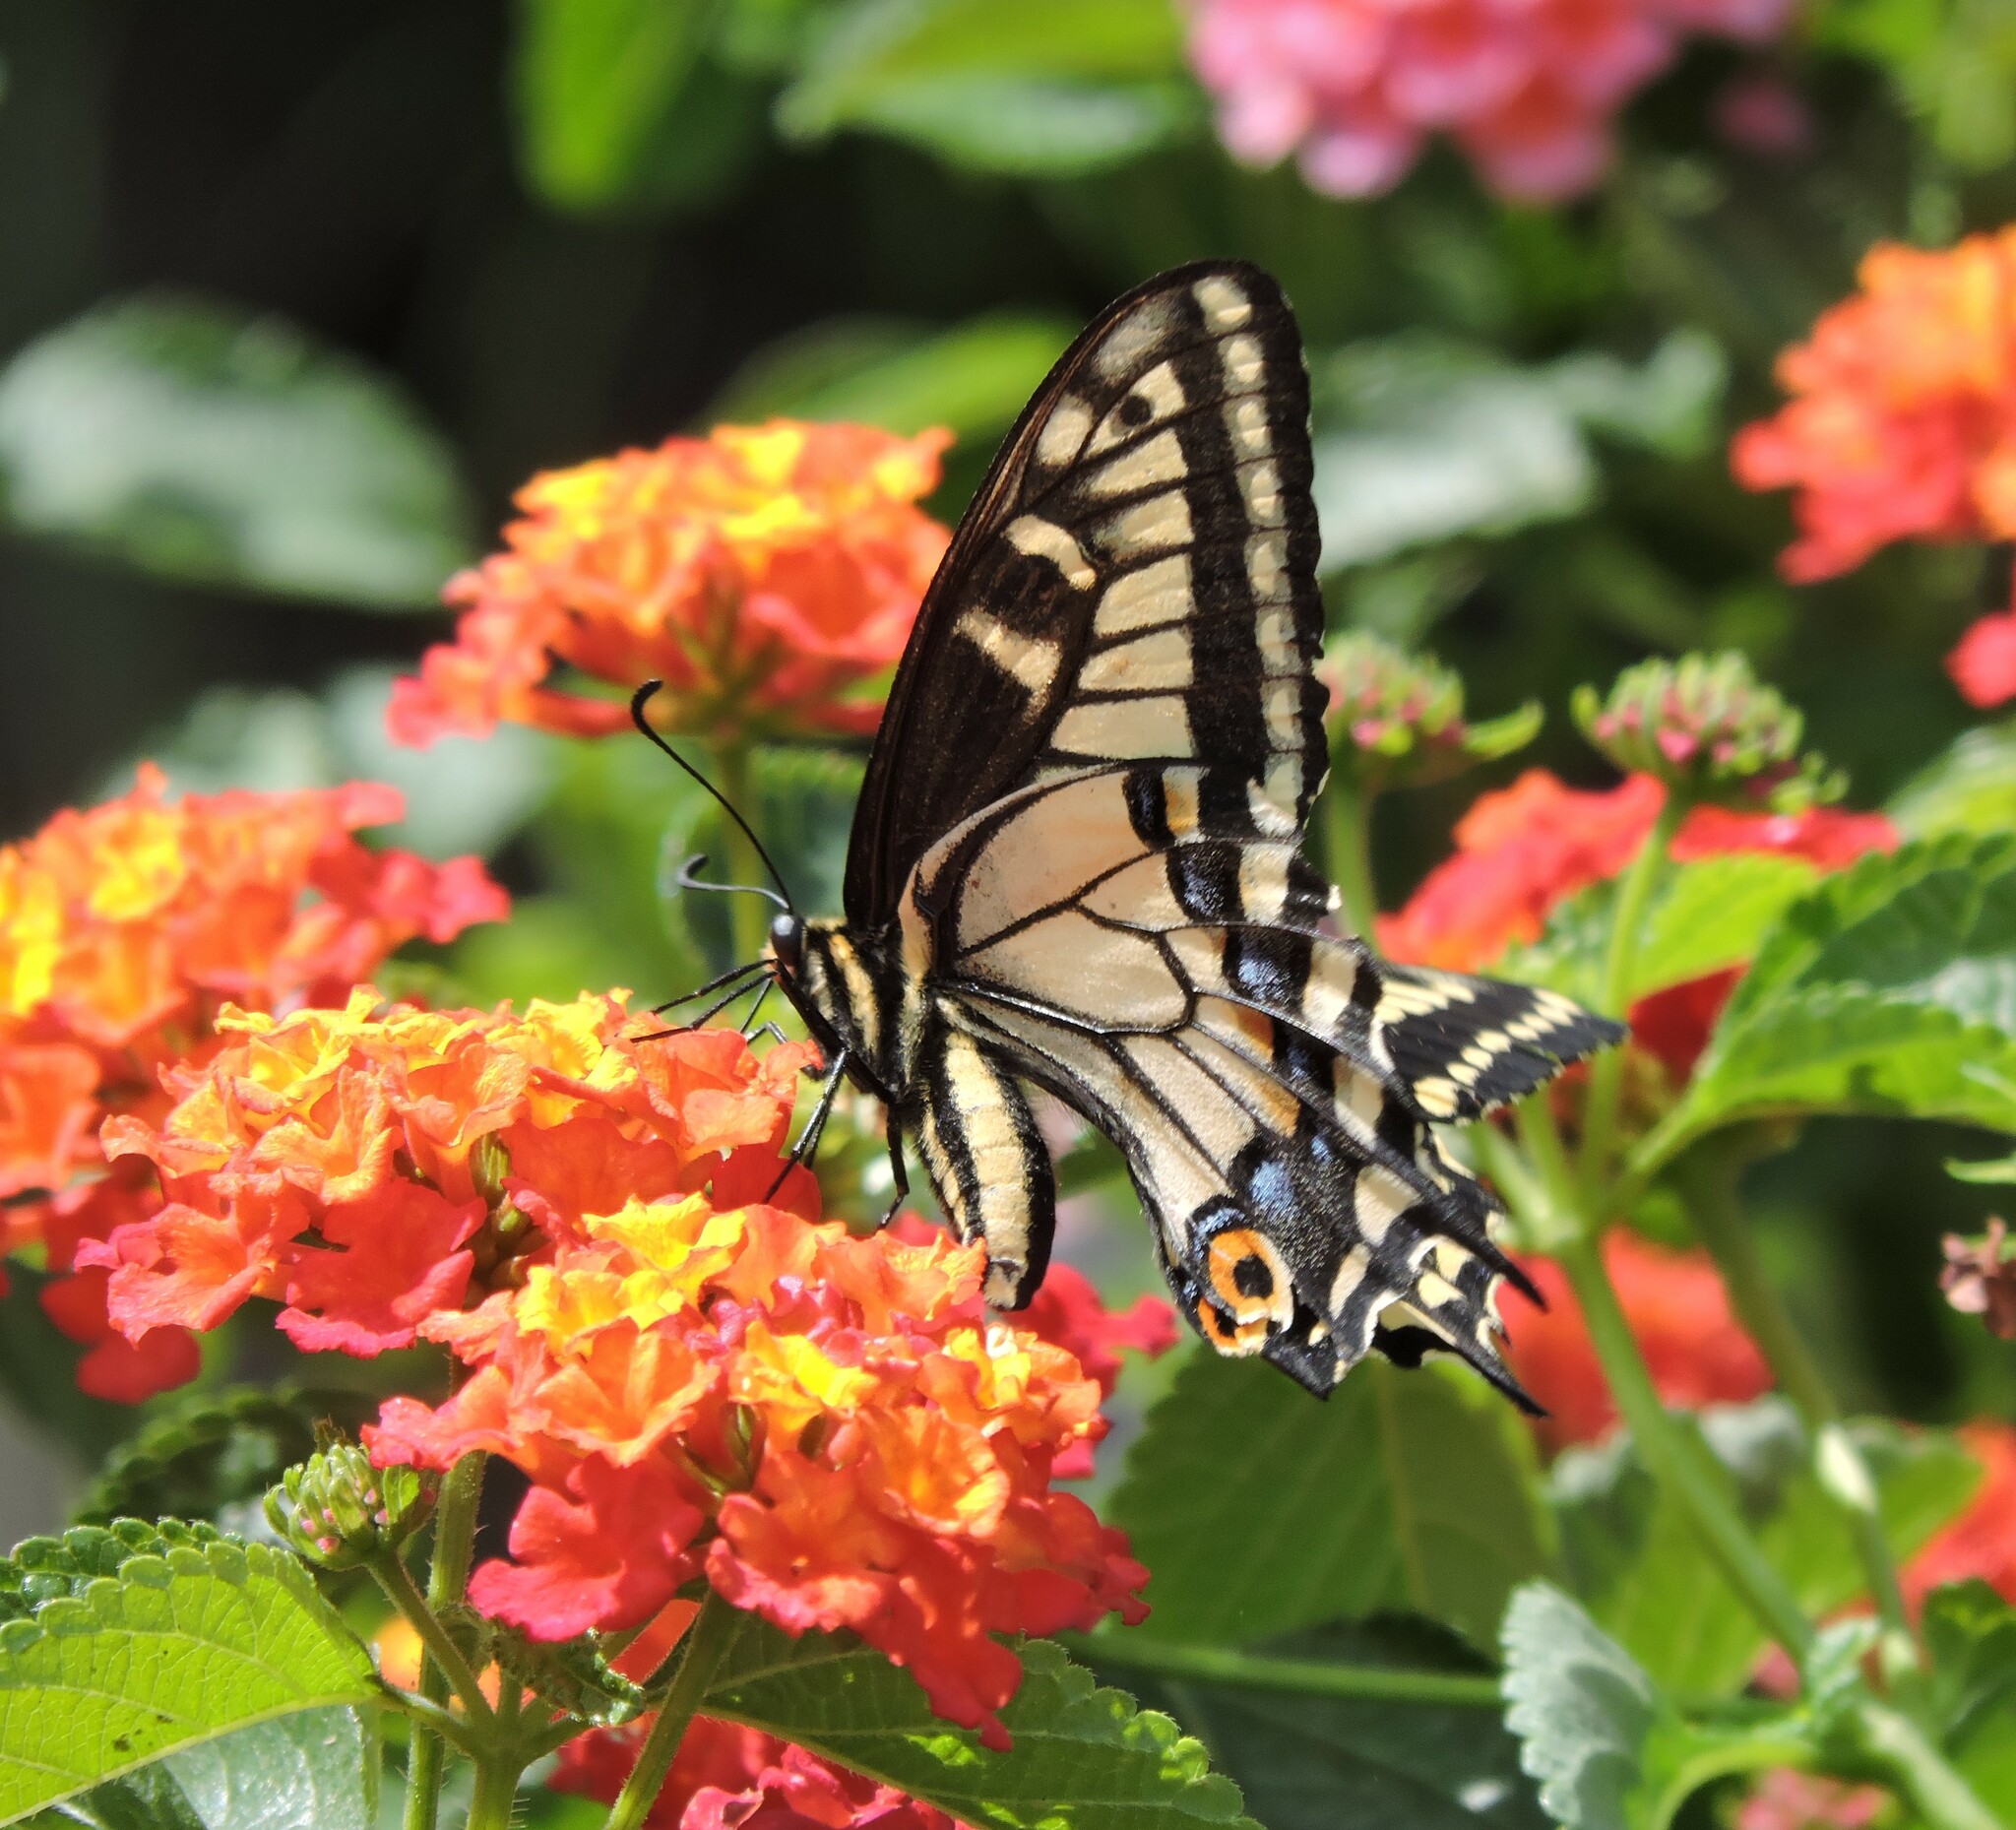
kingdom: Animalia
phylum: Arthropoda
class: Insecta
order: Lepidoptera
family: Papilionidae
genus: Papilio
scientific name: Papilio zelicaon
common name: Anise swallowtail
